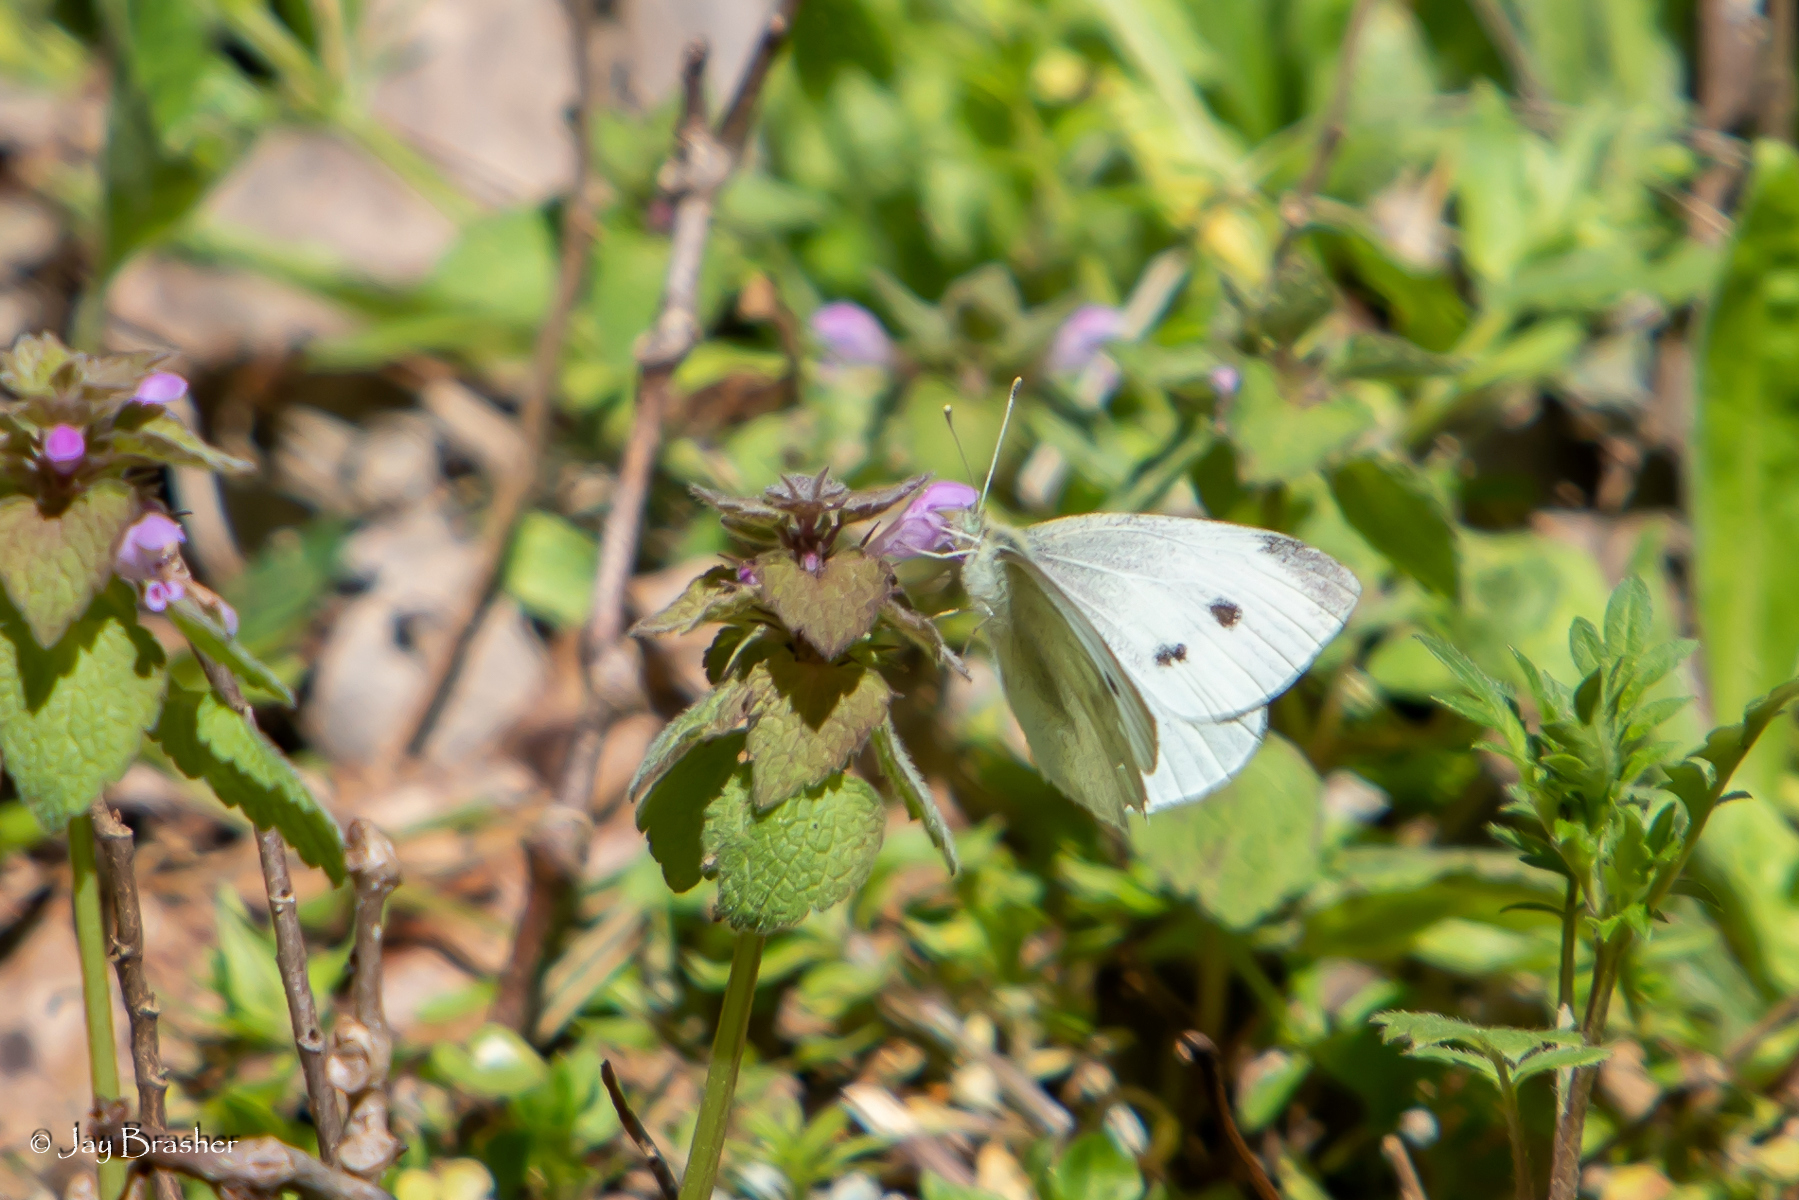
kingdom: Animalia
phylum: Arthropoda
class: Insecta
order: Lepidoptera
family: Pieridae
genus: Pieris
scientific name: Pieris rapae
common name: Small white
